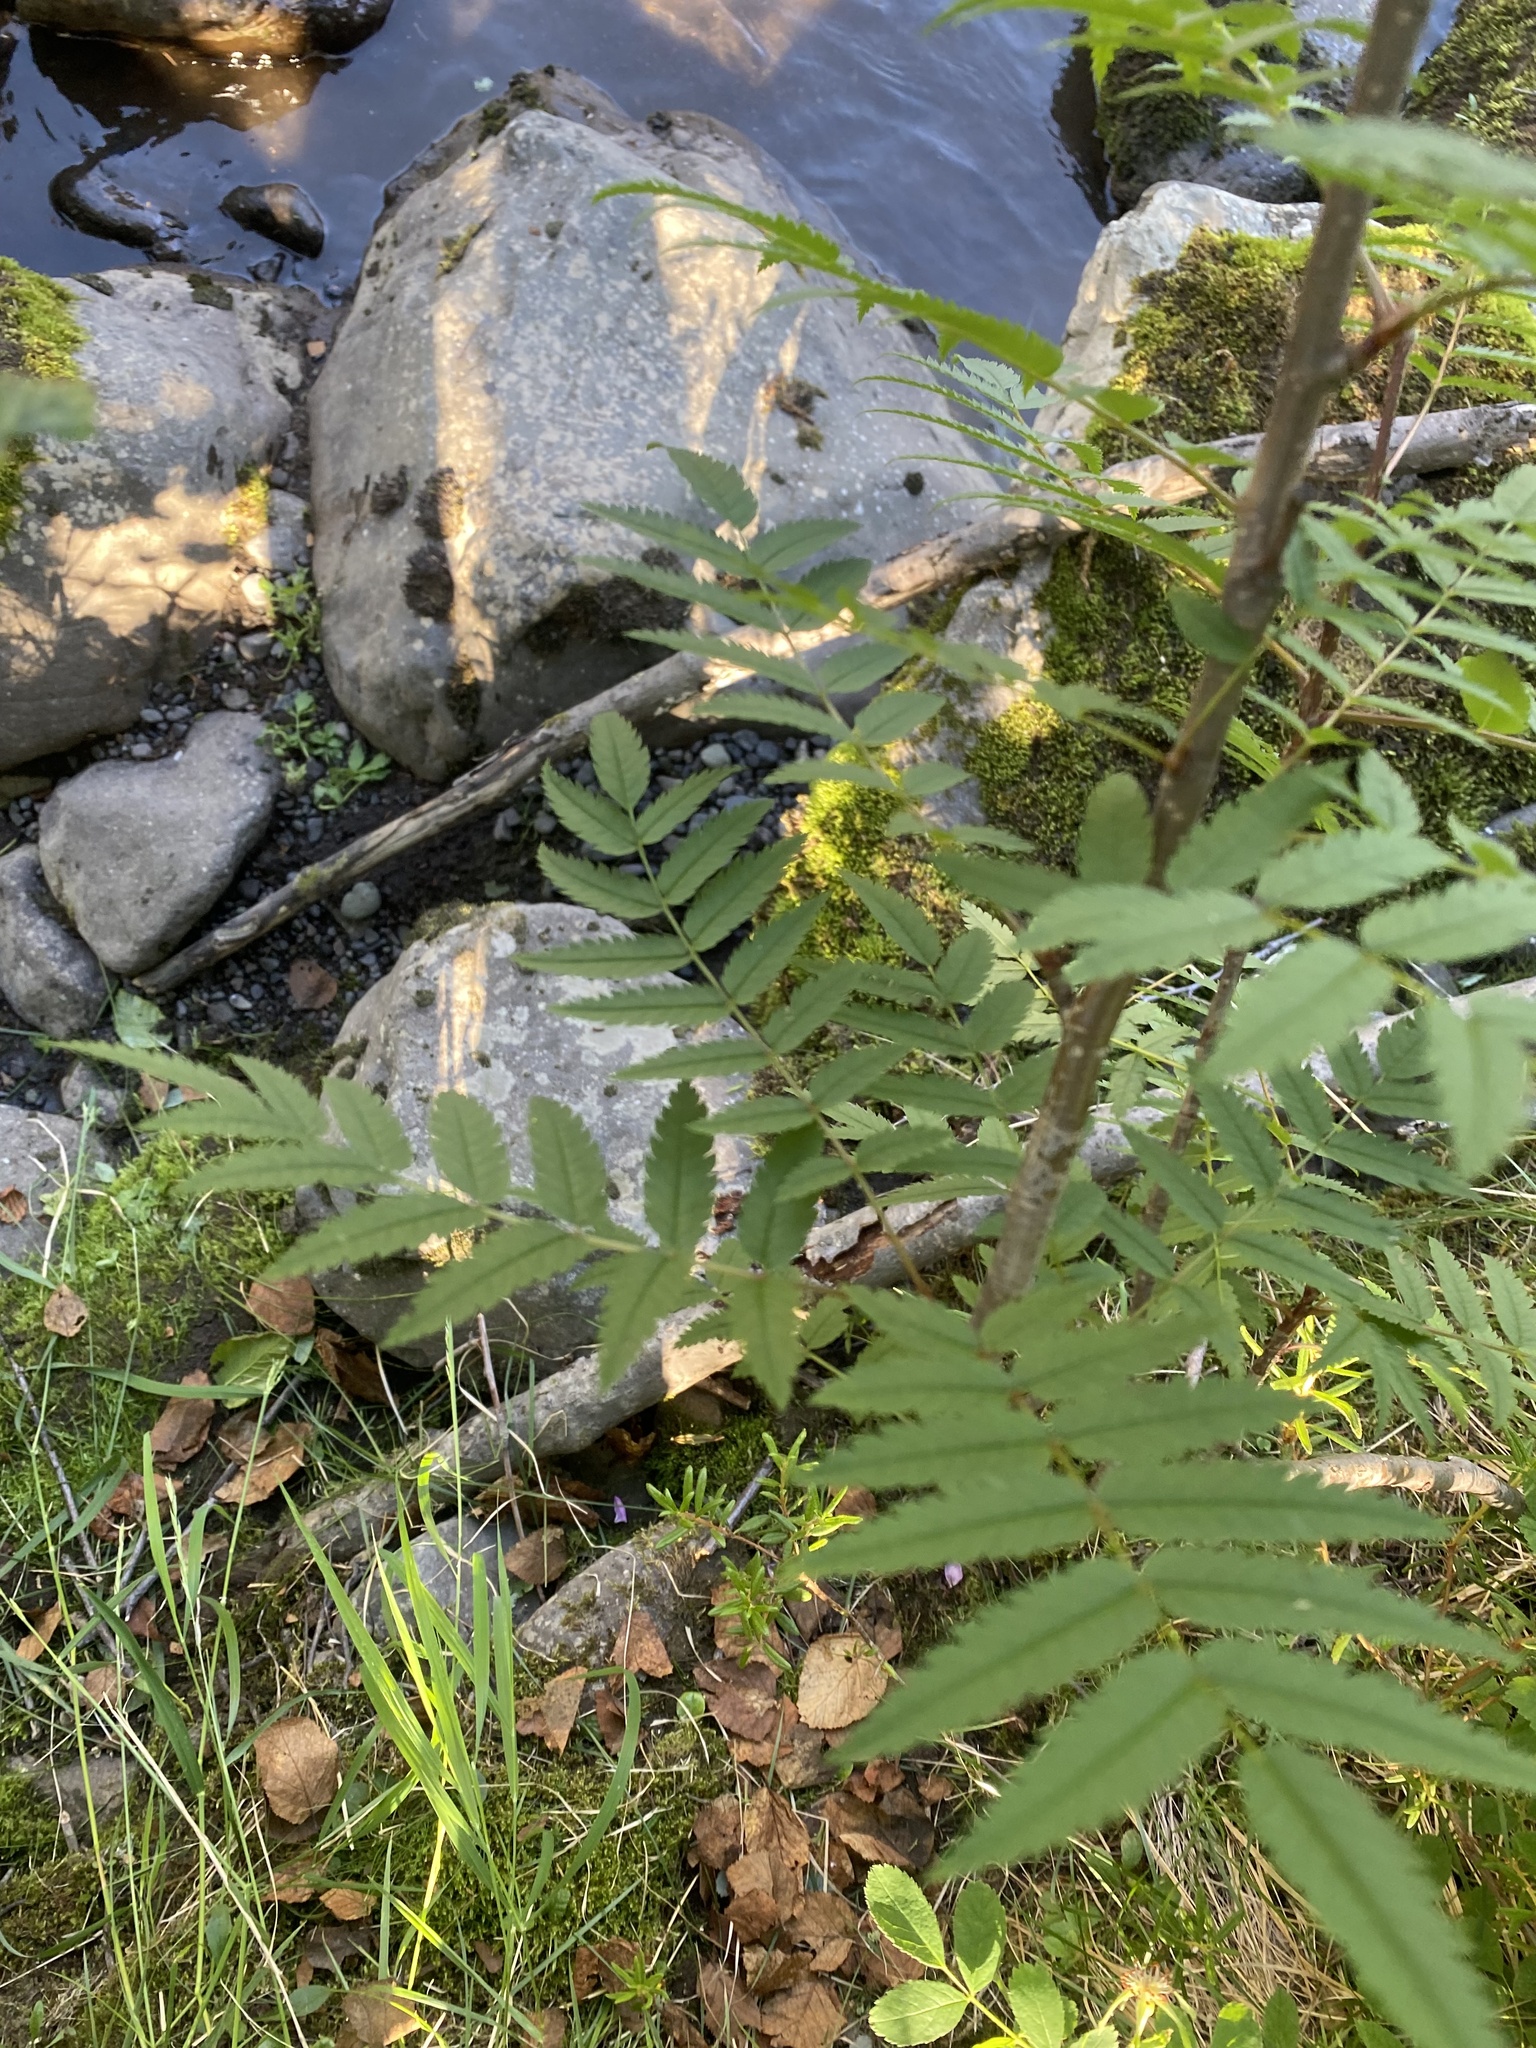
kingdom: Plantae
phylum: Tracheophyta
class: Magnoliopsida
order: Rosales
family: Rosaceae
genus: Sorbus
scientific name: Sorbus aucuparia
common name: Rowan
